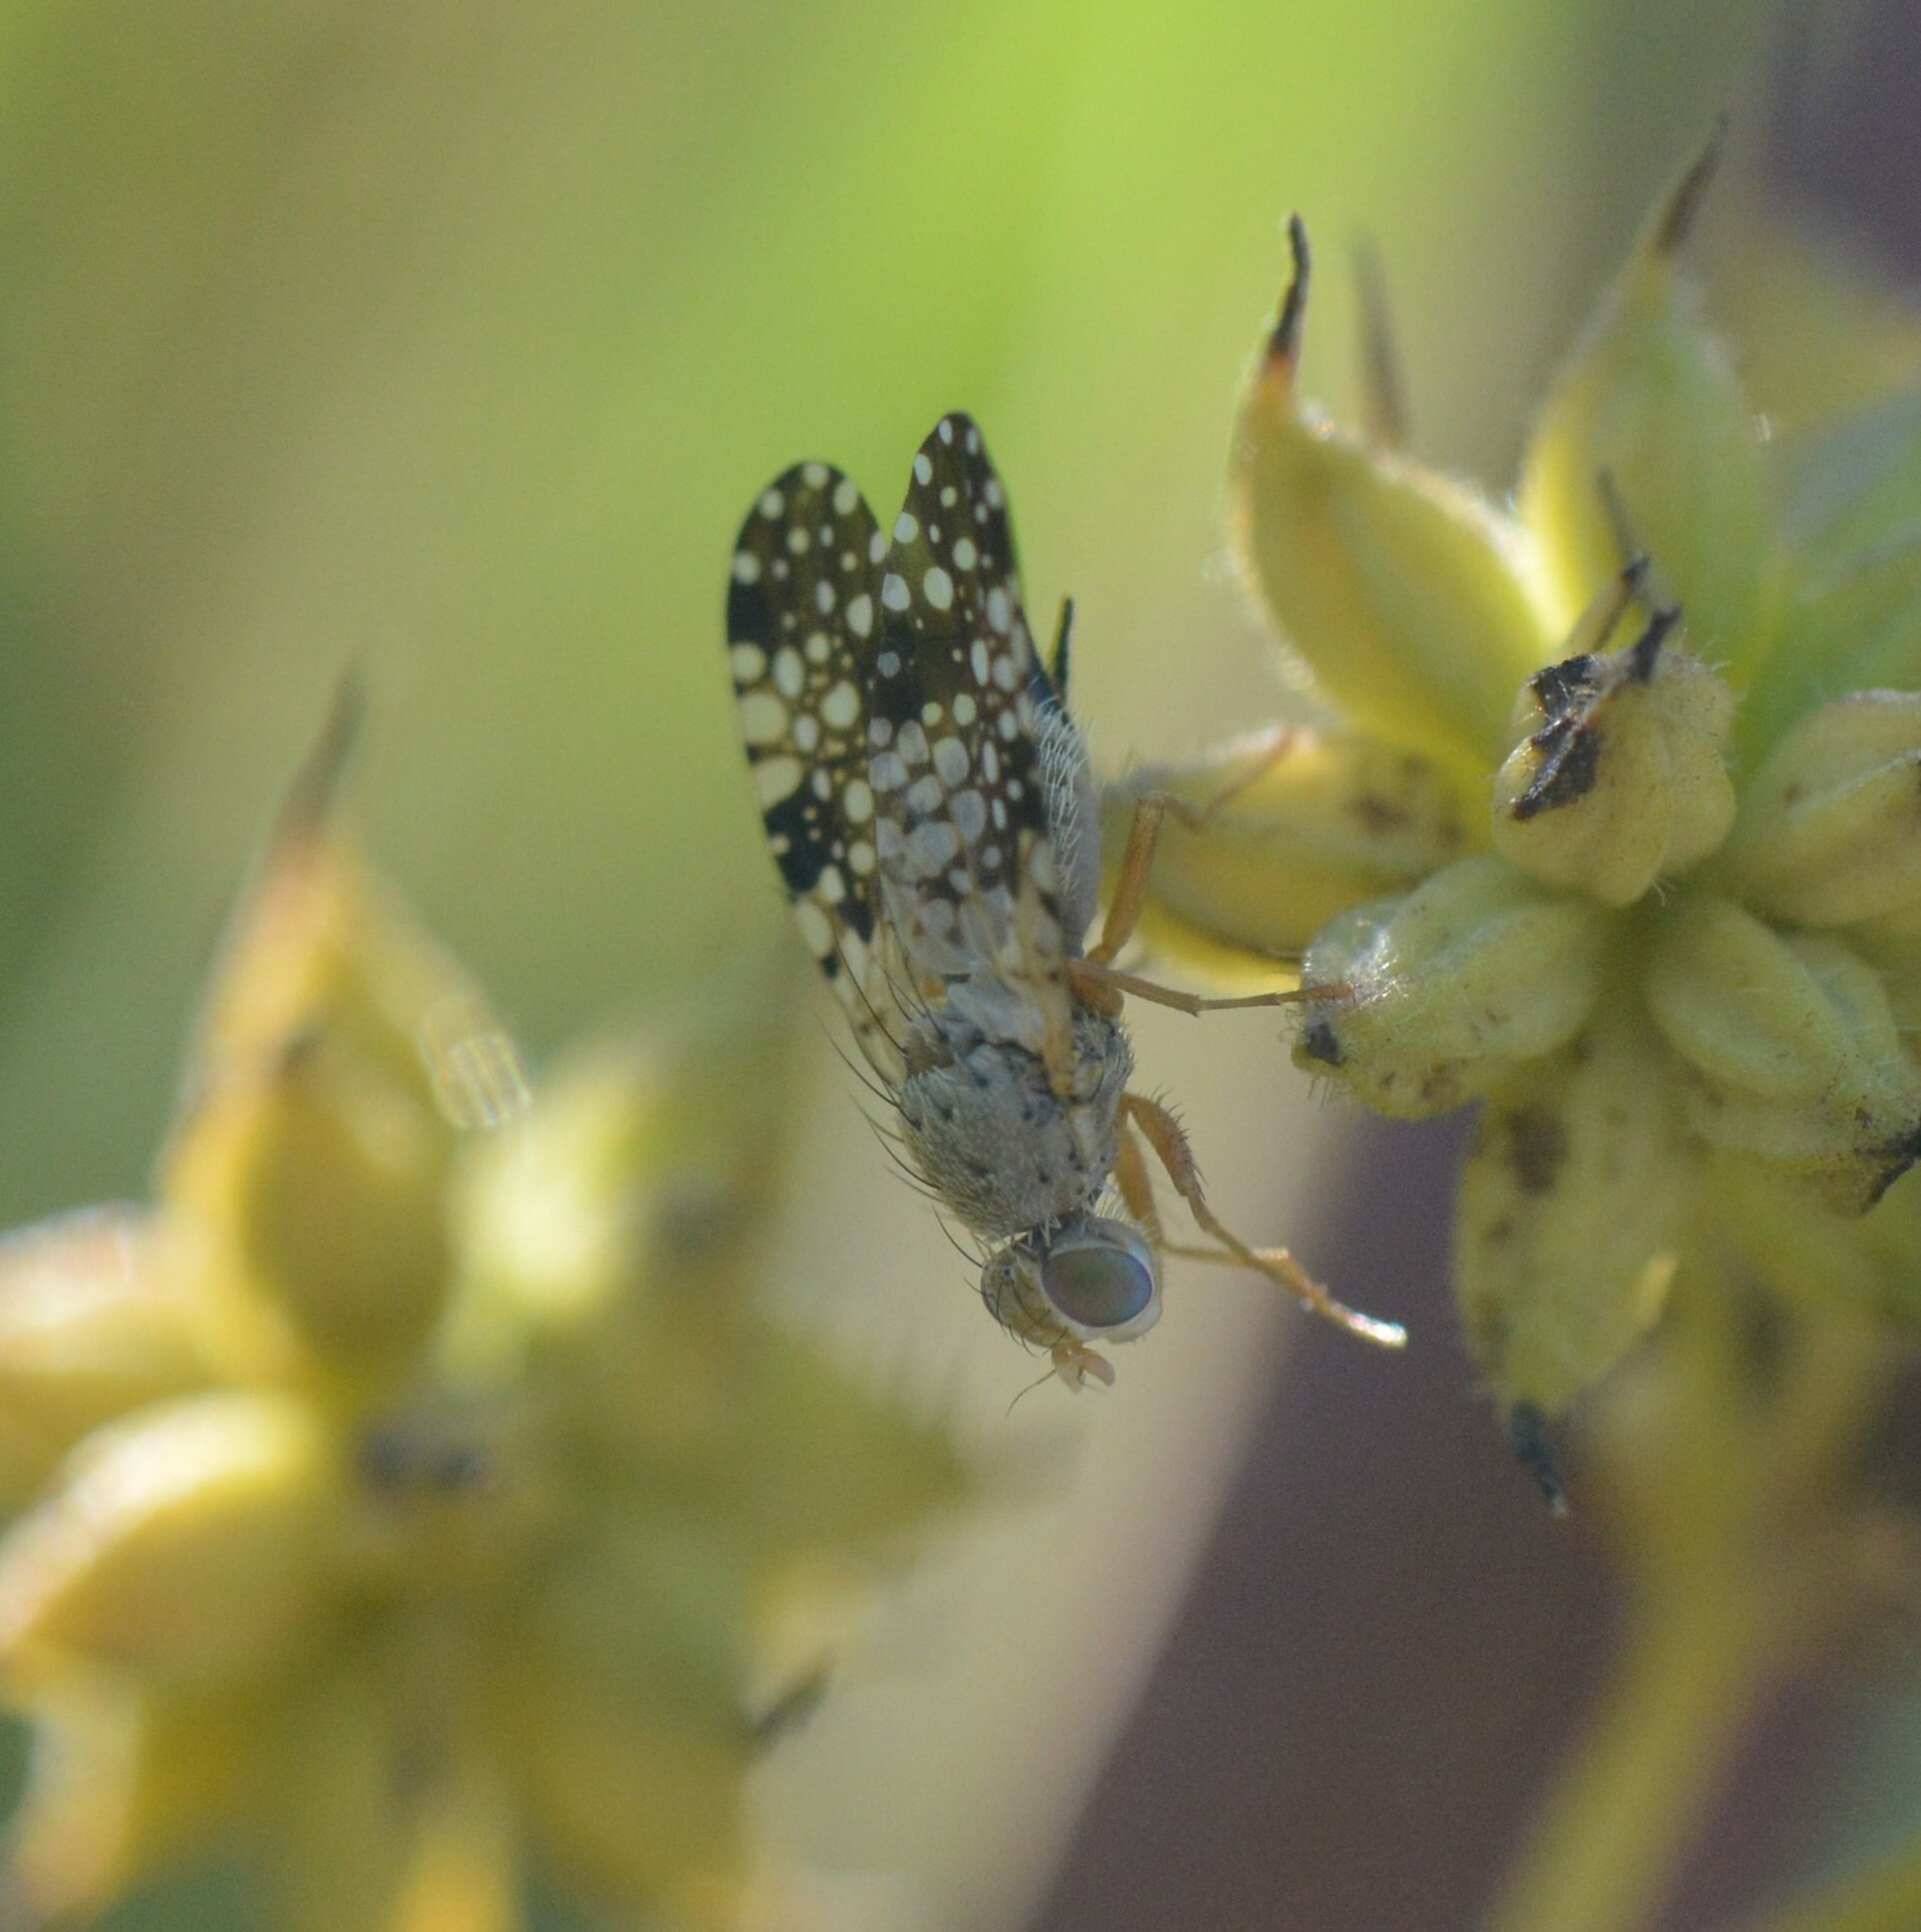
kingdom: Animalia
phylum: Arthropoda
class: Insecta
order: Diptera
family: Tephritidae
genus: Campiglossa
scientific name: Campiglossa albiceps
